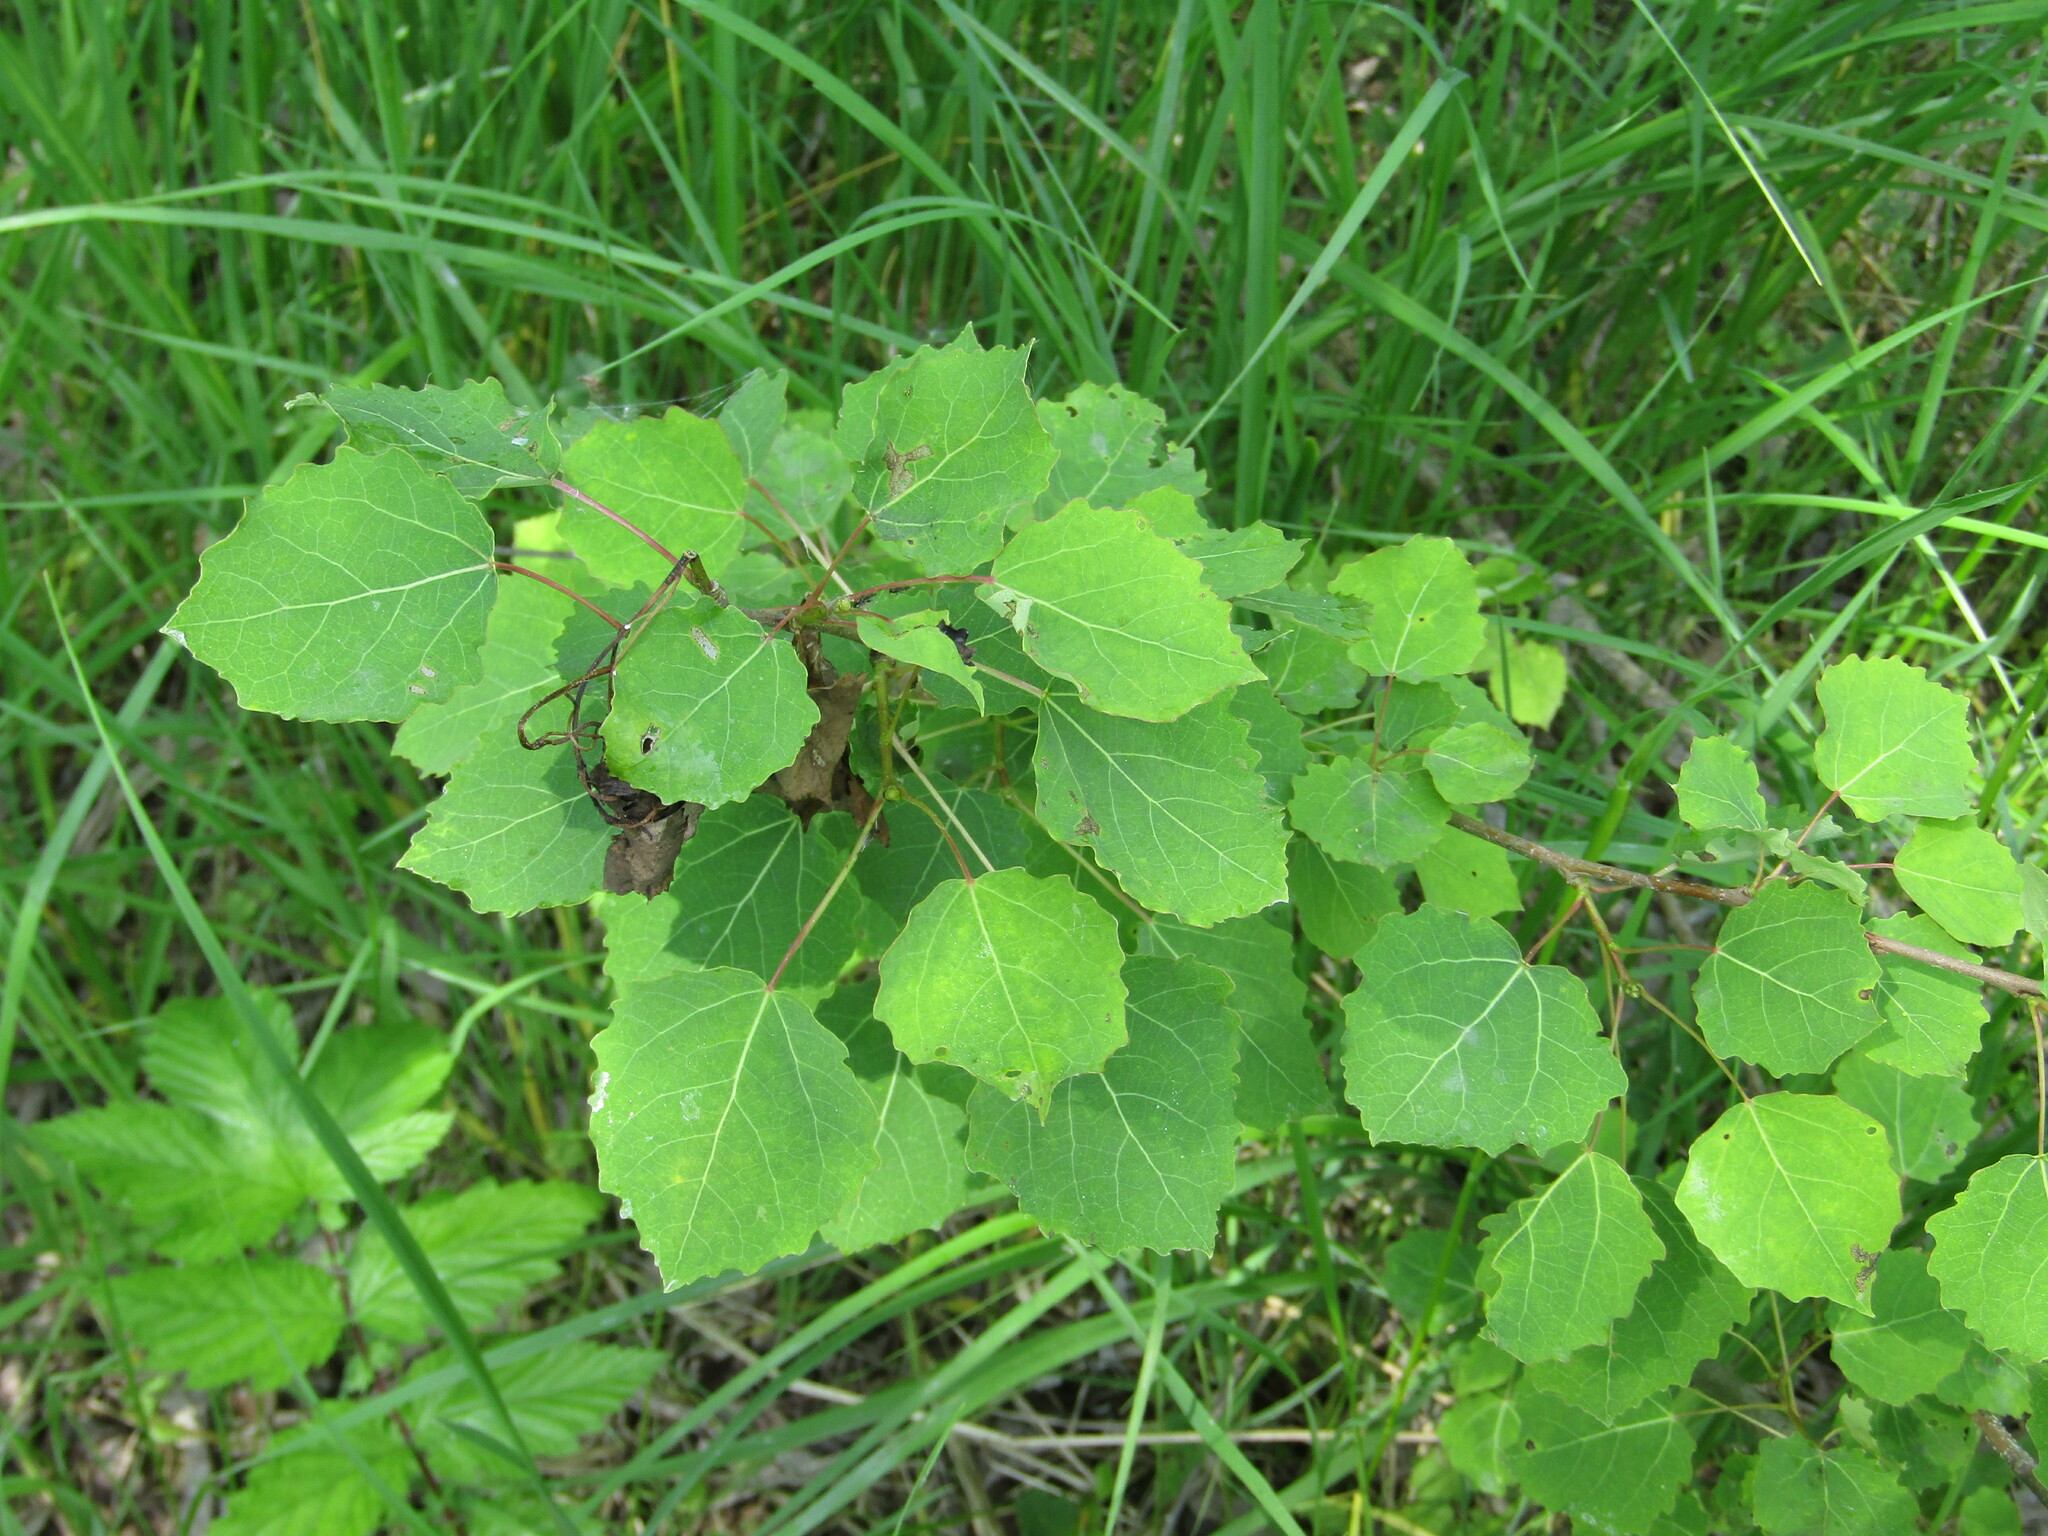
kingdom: Plantae
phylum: Tracheophyta
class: Magnoliopsida
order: Malpighiales
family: Salicaceae
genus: Populus
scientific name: Populus tremula
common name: European aspen
